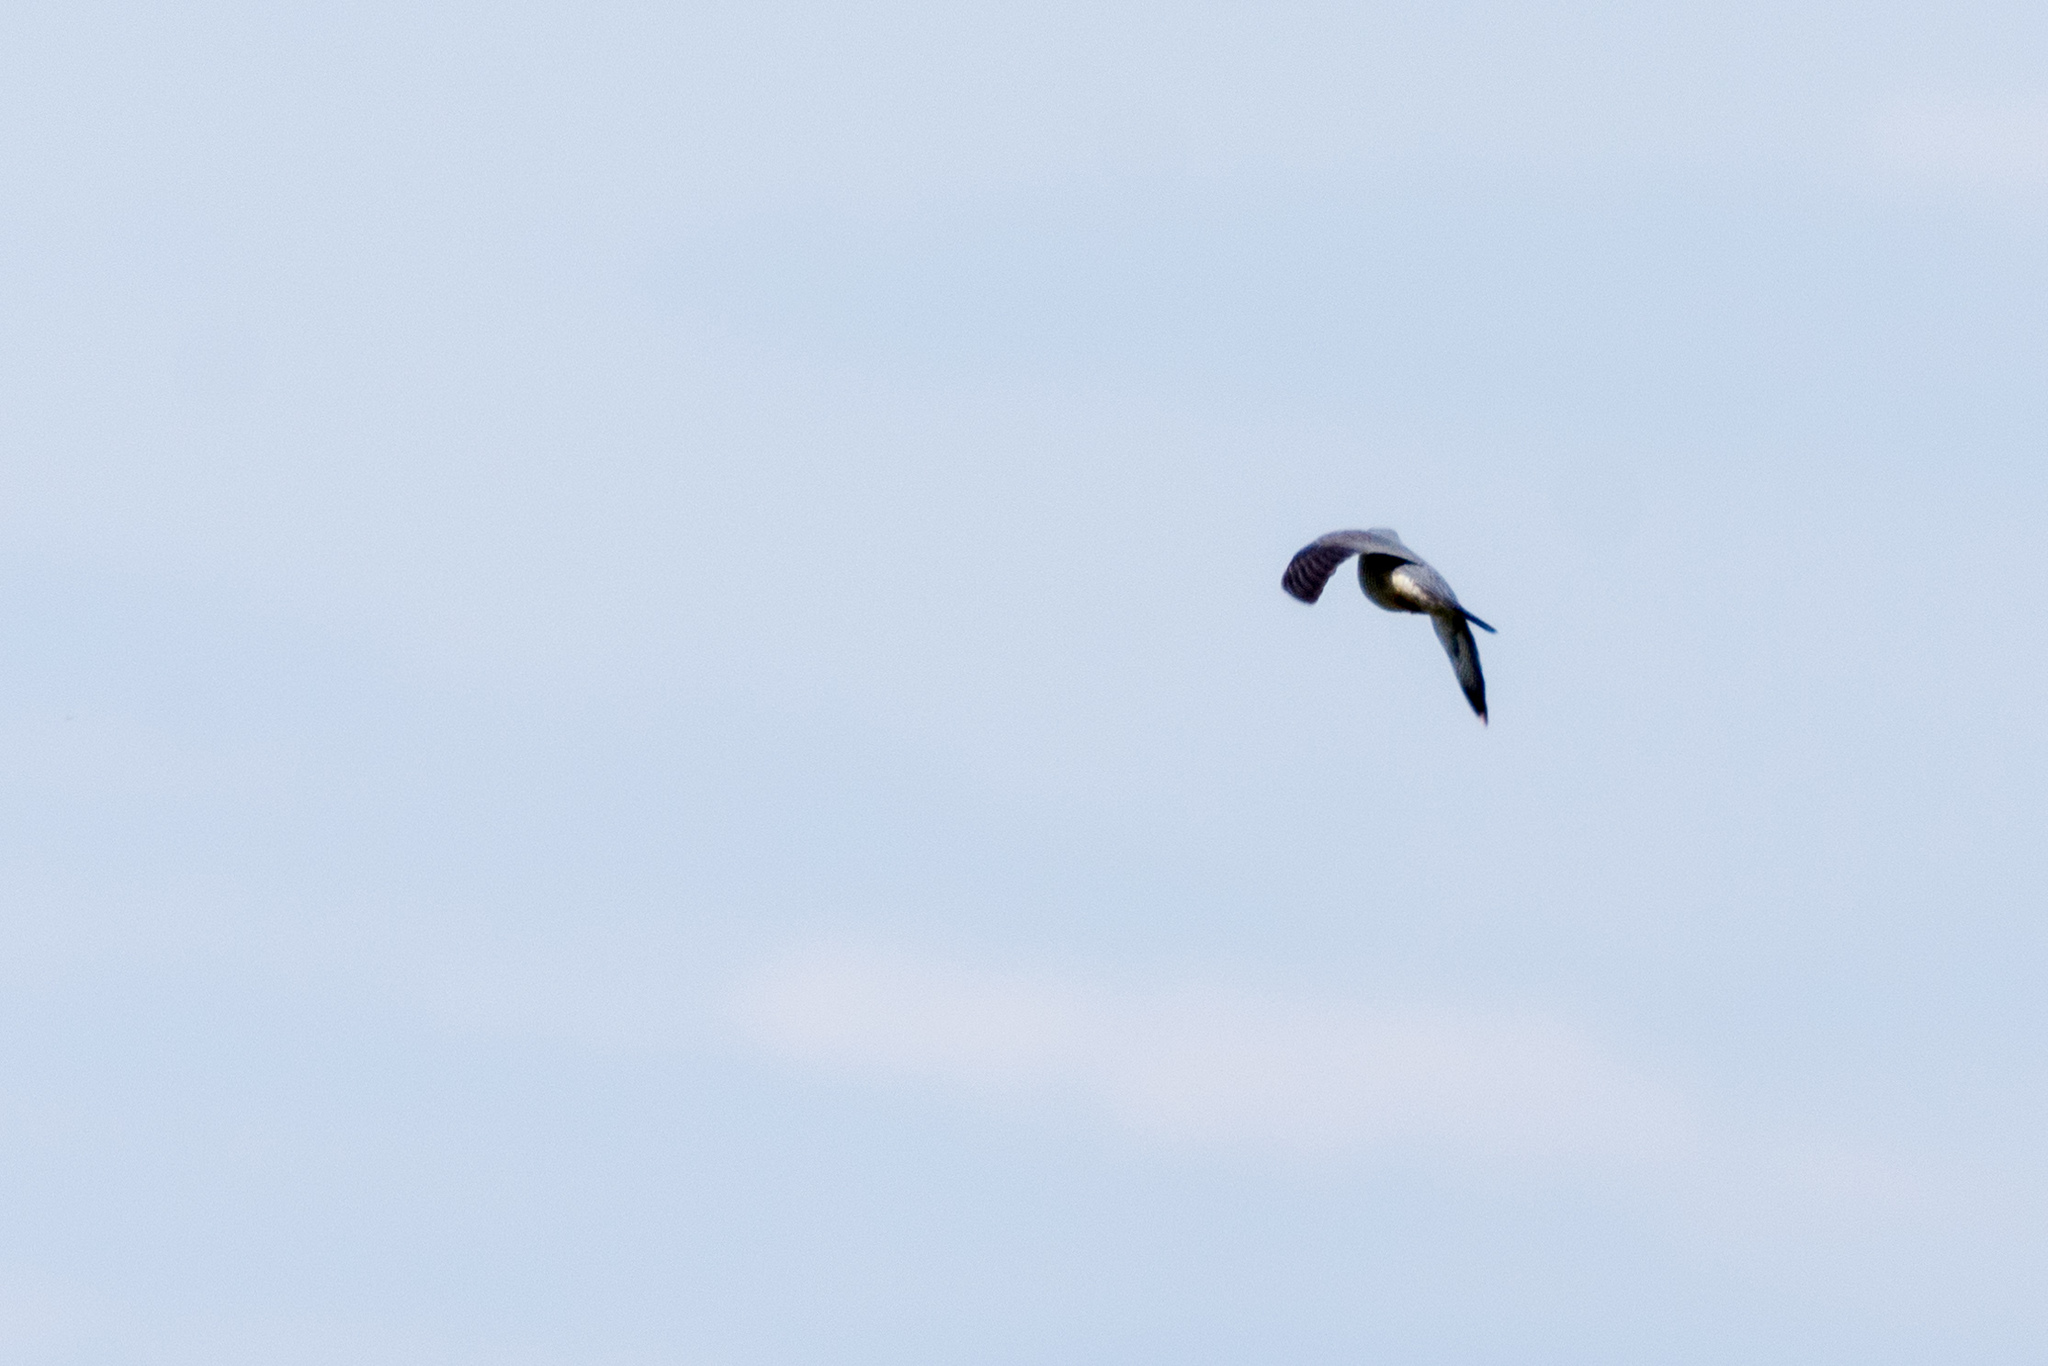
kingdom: Animalia
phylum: Chordata
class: Aves
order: Cuculiformes
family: Cuculidae
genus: Cuculus
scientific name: Cuculus canorus
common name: Common cuckoo
